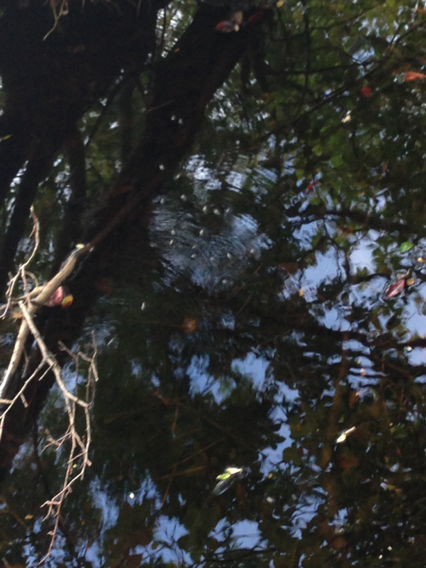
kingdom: Animalia
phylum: Arthropoda
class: Insecta
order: Coleoptera
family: Gyrinidae
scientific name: Gyrinidae
